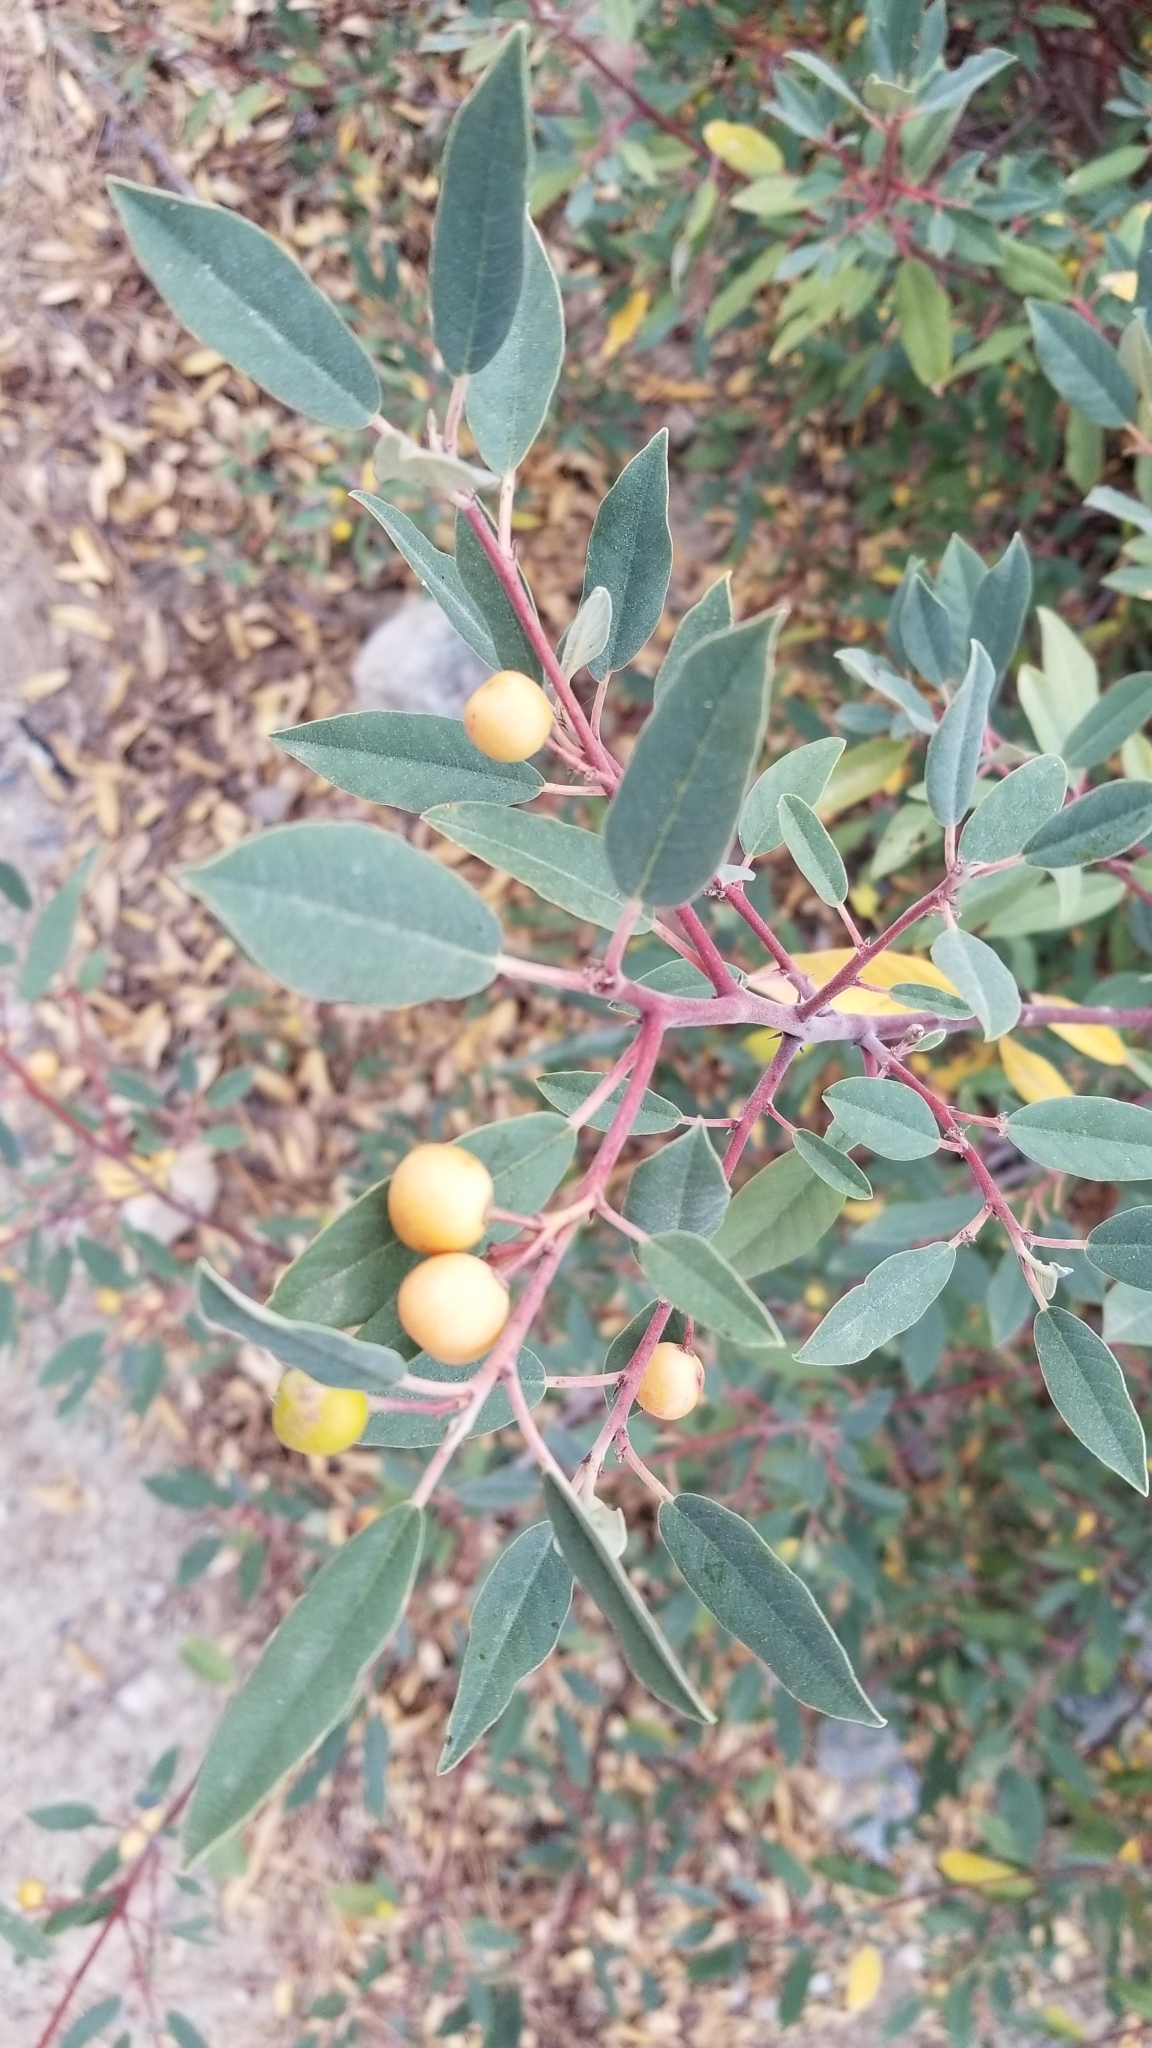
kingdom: Plantae
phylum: Tracheophyta
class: Magnoliopsida
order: Rosales
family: Rhamnaceae
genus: Frangula
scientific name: Frangula californica
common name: California buckthorn
